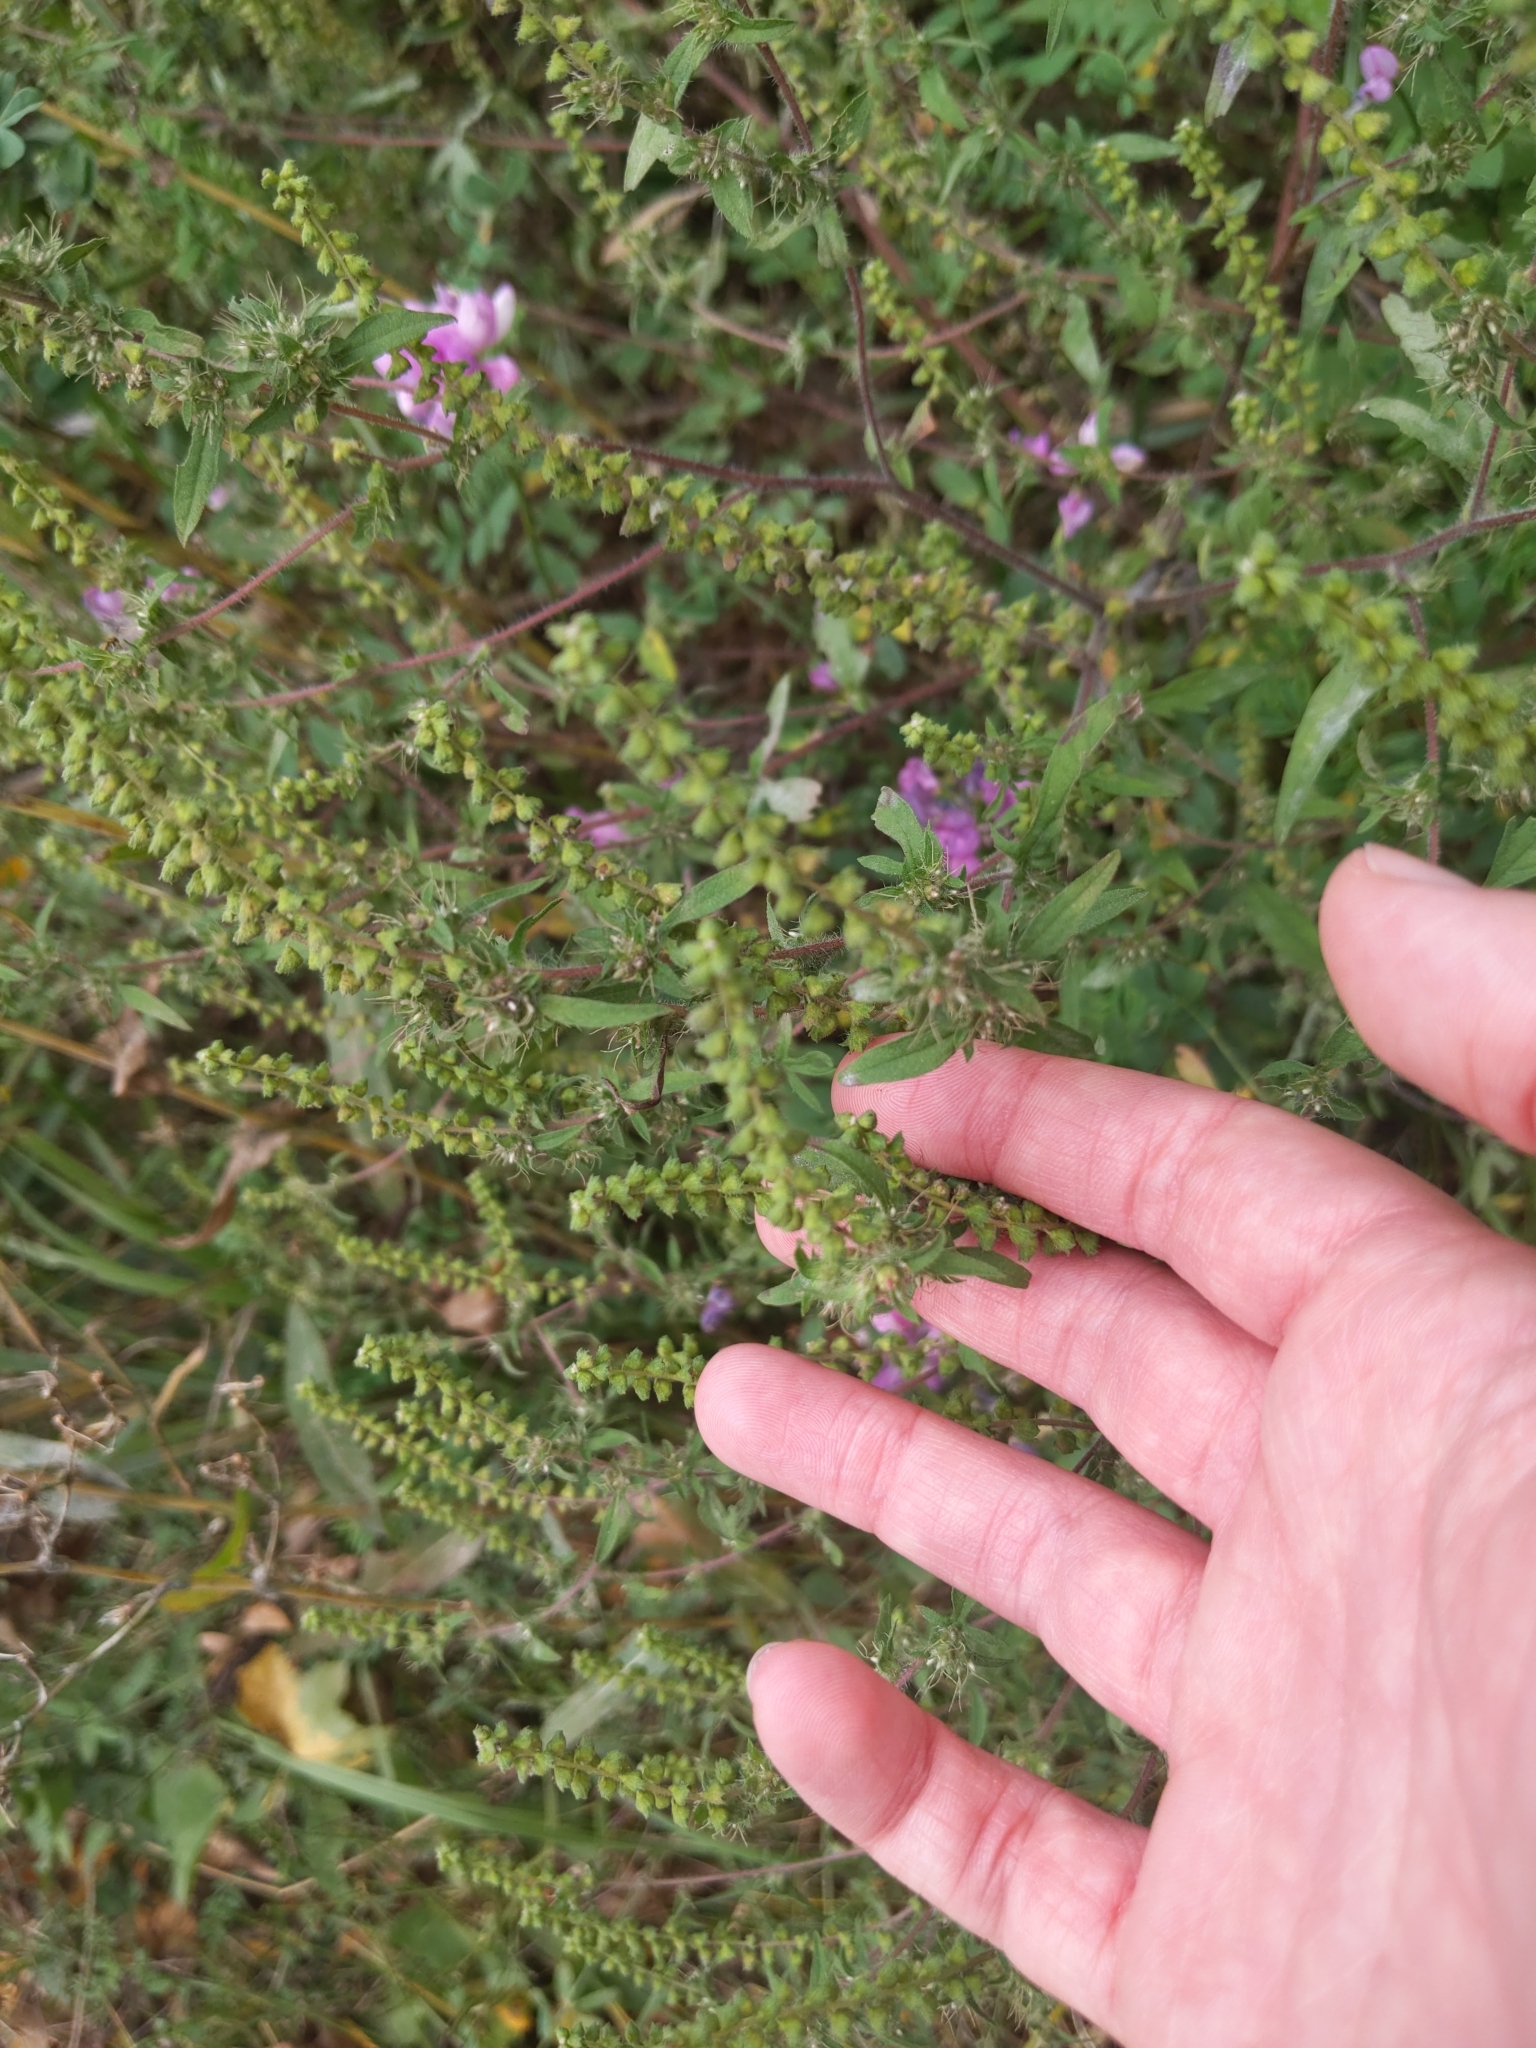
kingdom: Plantae
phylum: Tracheophyta
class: Magnoliopsida
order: Asterales
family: Asteraceae
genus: Ambrosia
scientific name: Ambrosia artemisiifolia
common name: Annual ragweed
